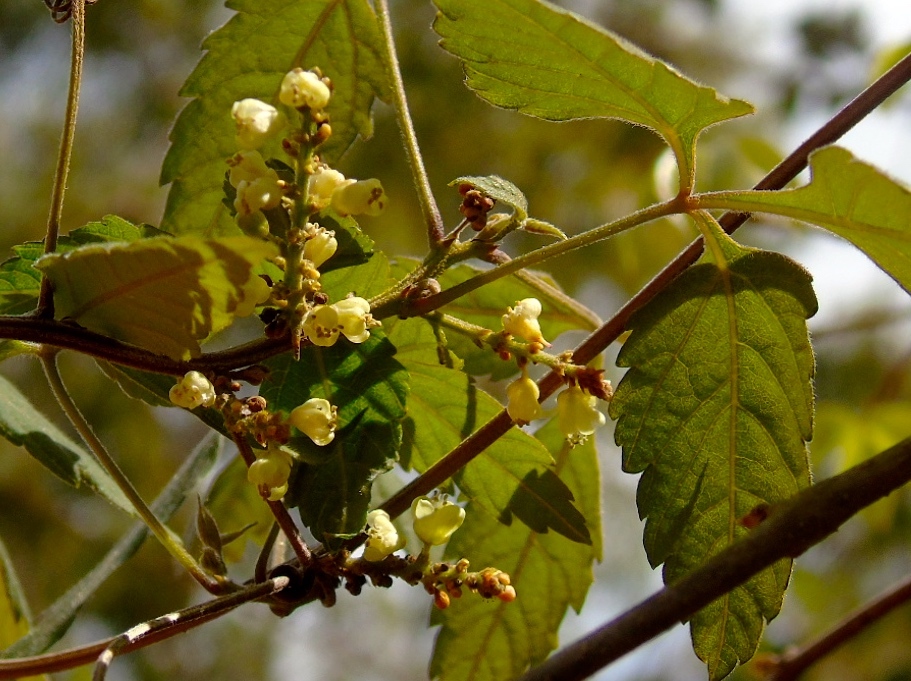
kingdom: Plantae
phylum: Tracheophyta
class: Magnoliopsida
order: Sapindales
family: Sapindaceae
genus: Paullinia
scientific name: Paullinia fuscescens
